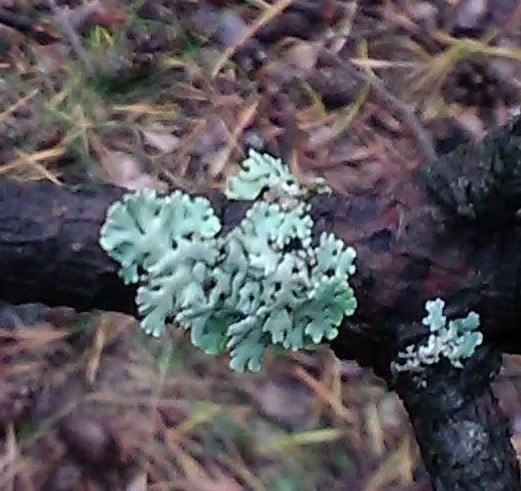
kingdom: Fungi
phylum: Ascomycota
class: Lecanoromycetes
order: Lecanorales
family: Parmeliaceae
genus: Hypogymnia
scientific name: Hypogymnia physodes
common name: Dark crottle
